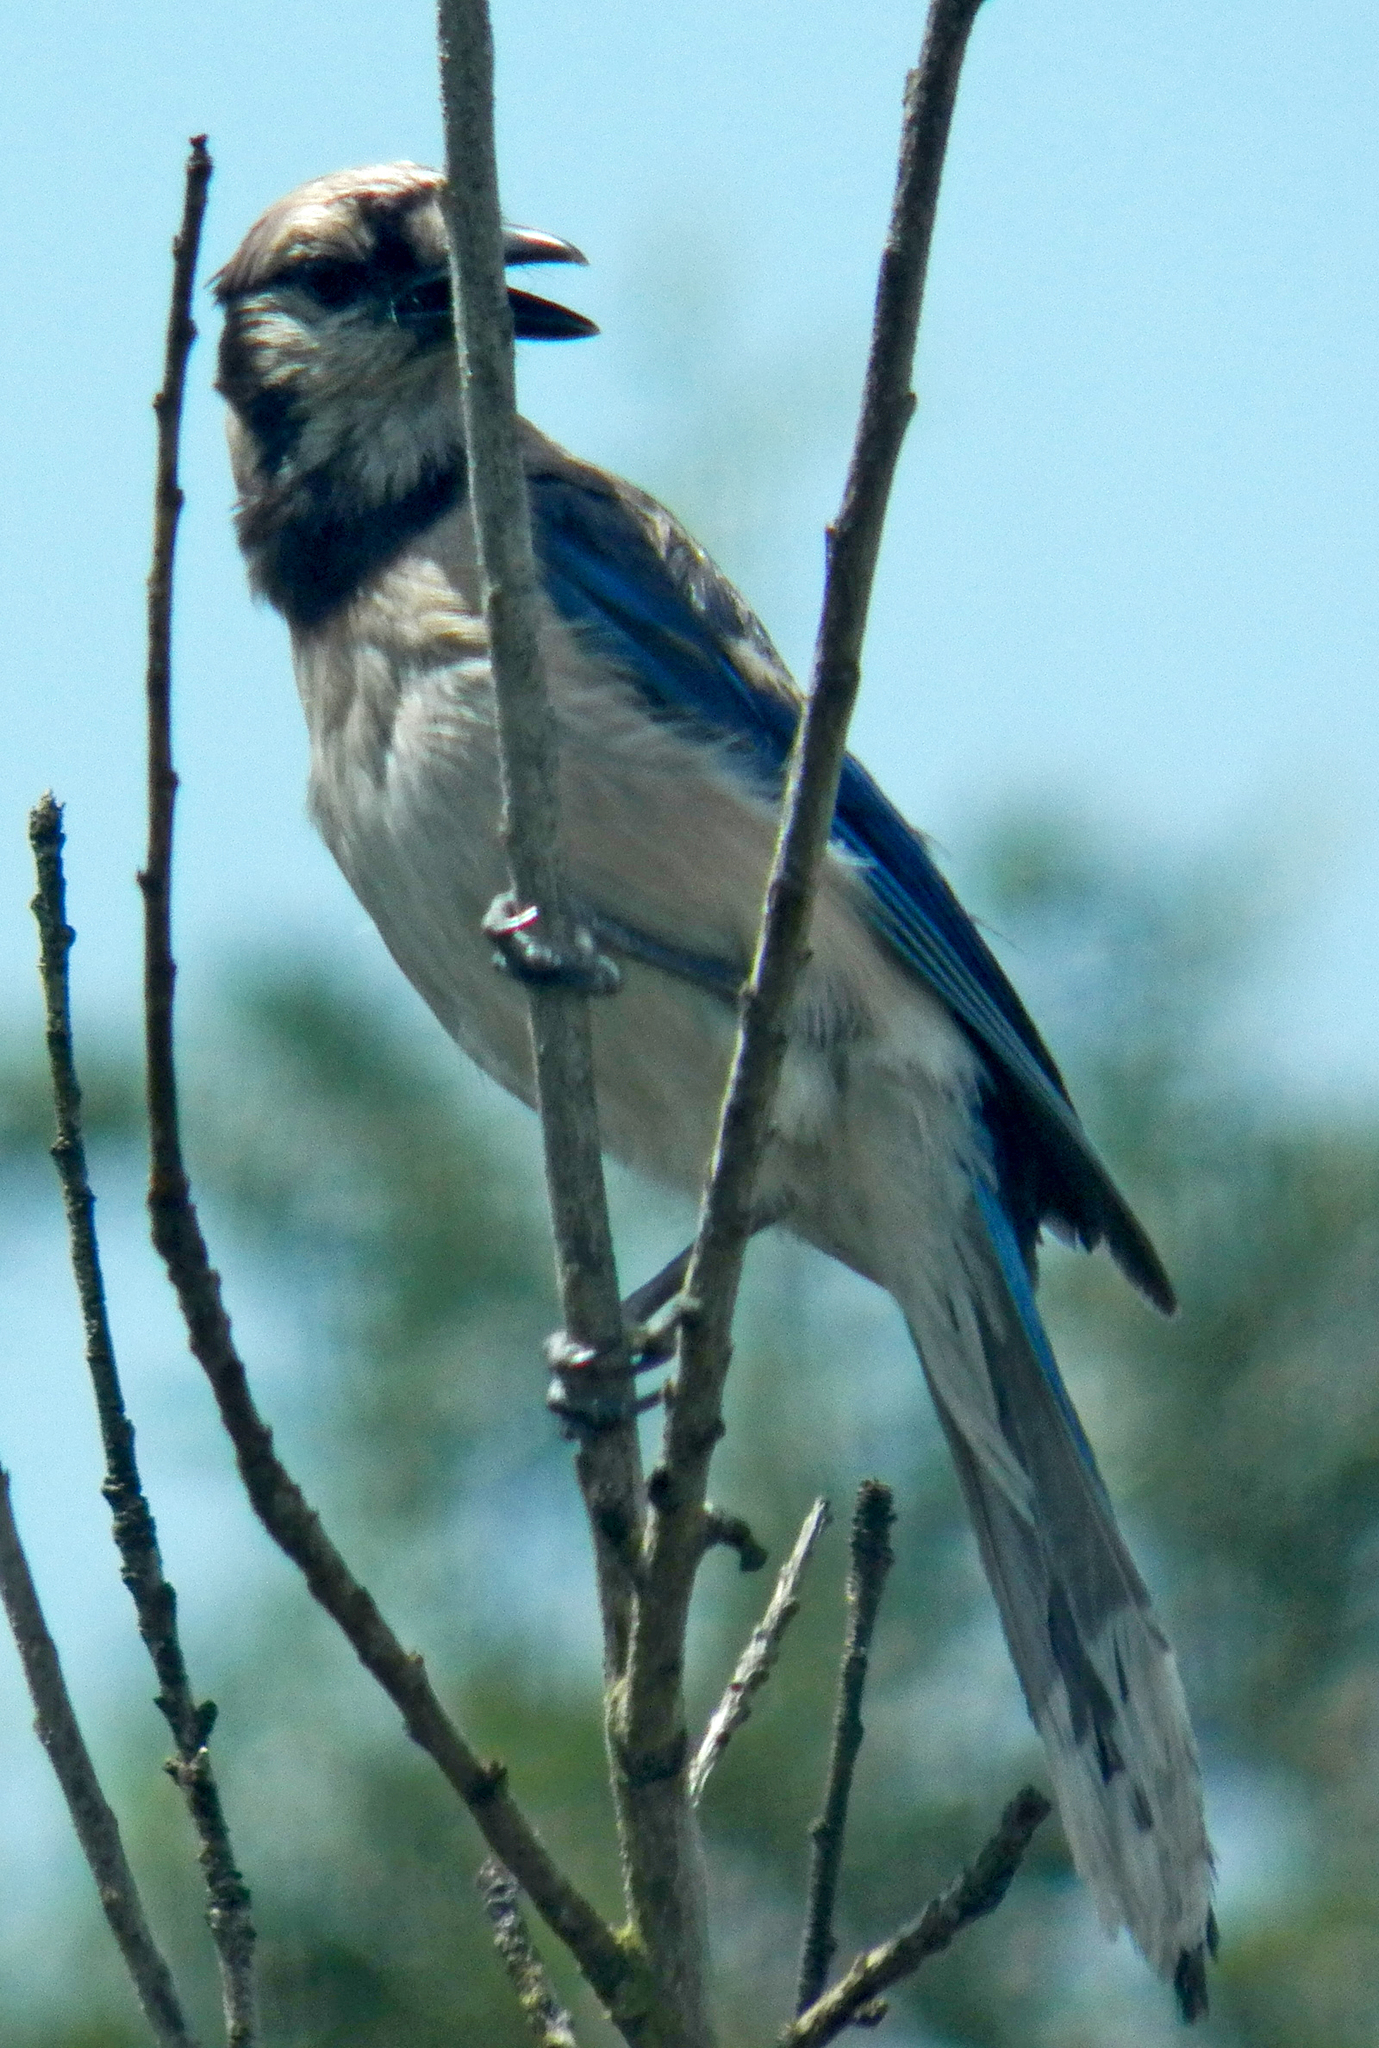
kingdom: Animalia
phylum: Chordata
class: Aves
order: Passeriformes
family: Corvidae
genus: Cyanocitta
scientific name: Cyanocitta cristata
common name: Blue jay
